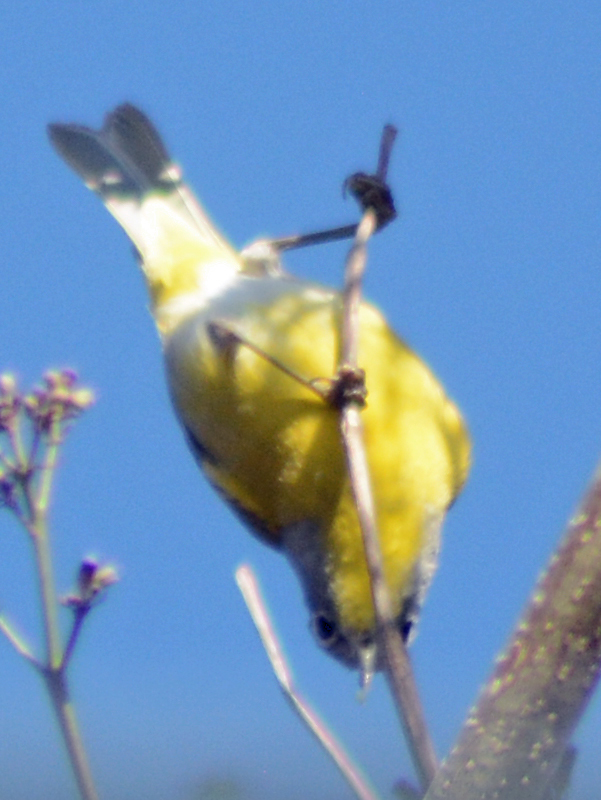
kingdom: Animalia
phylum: Chordata
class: Aves
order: Passeriformes
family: Parulidae
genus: Leiothlypis
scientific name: Leiothlypis ruficapilla
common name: Nashville warbler
